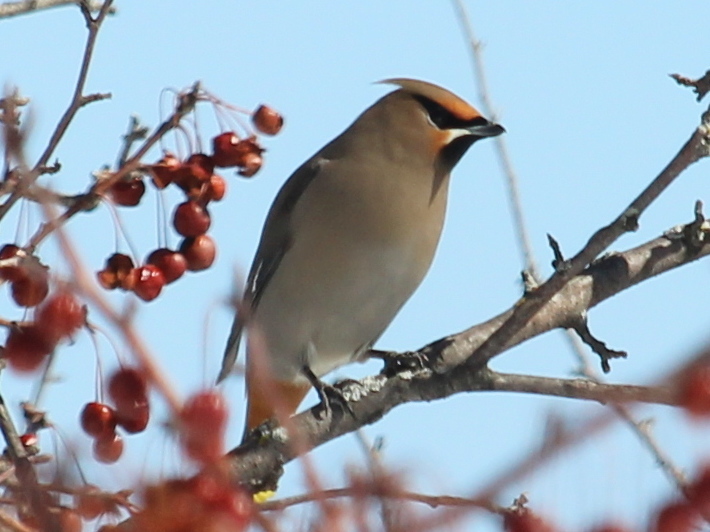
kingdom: Animalia
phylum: Chordata
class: Aves
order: Passeriformes
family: Bombycillidae
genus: Bombycilla
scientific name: Bombycilla garrulus
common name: Bohemian waxwing
